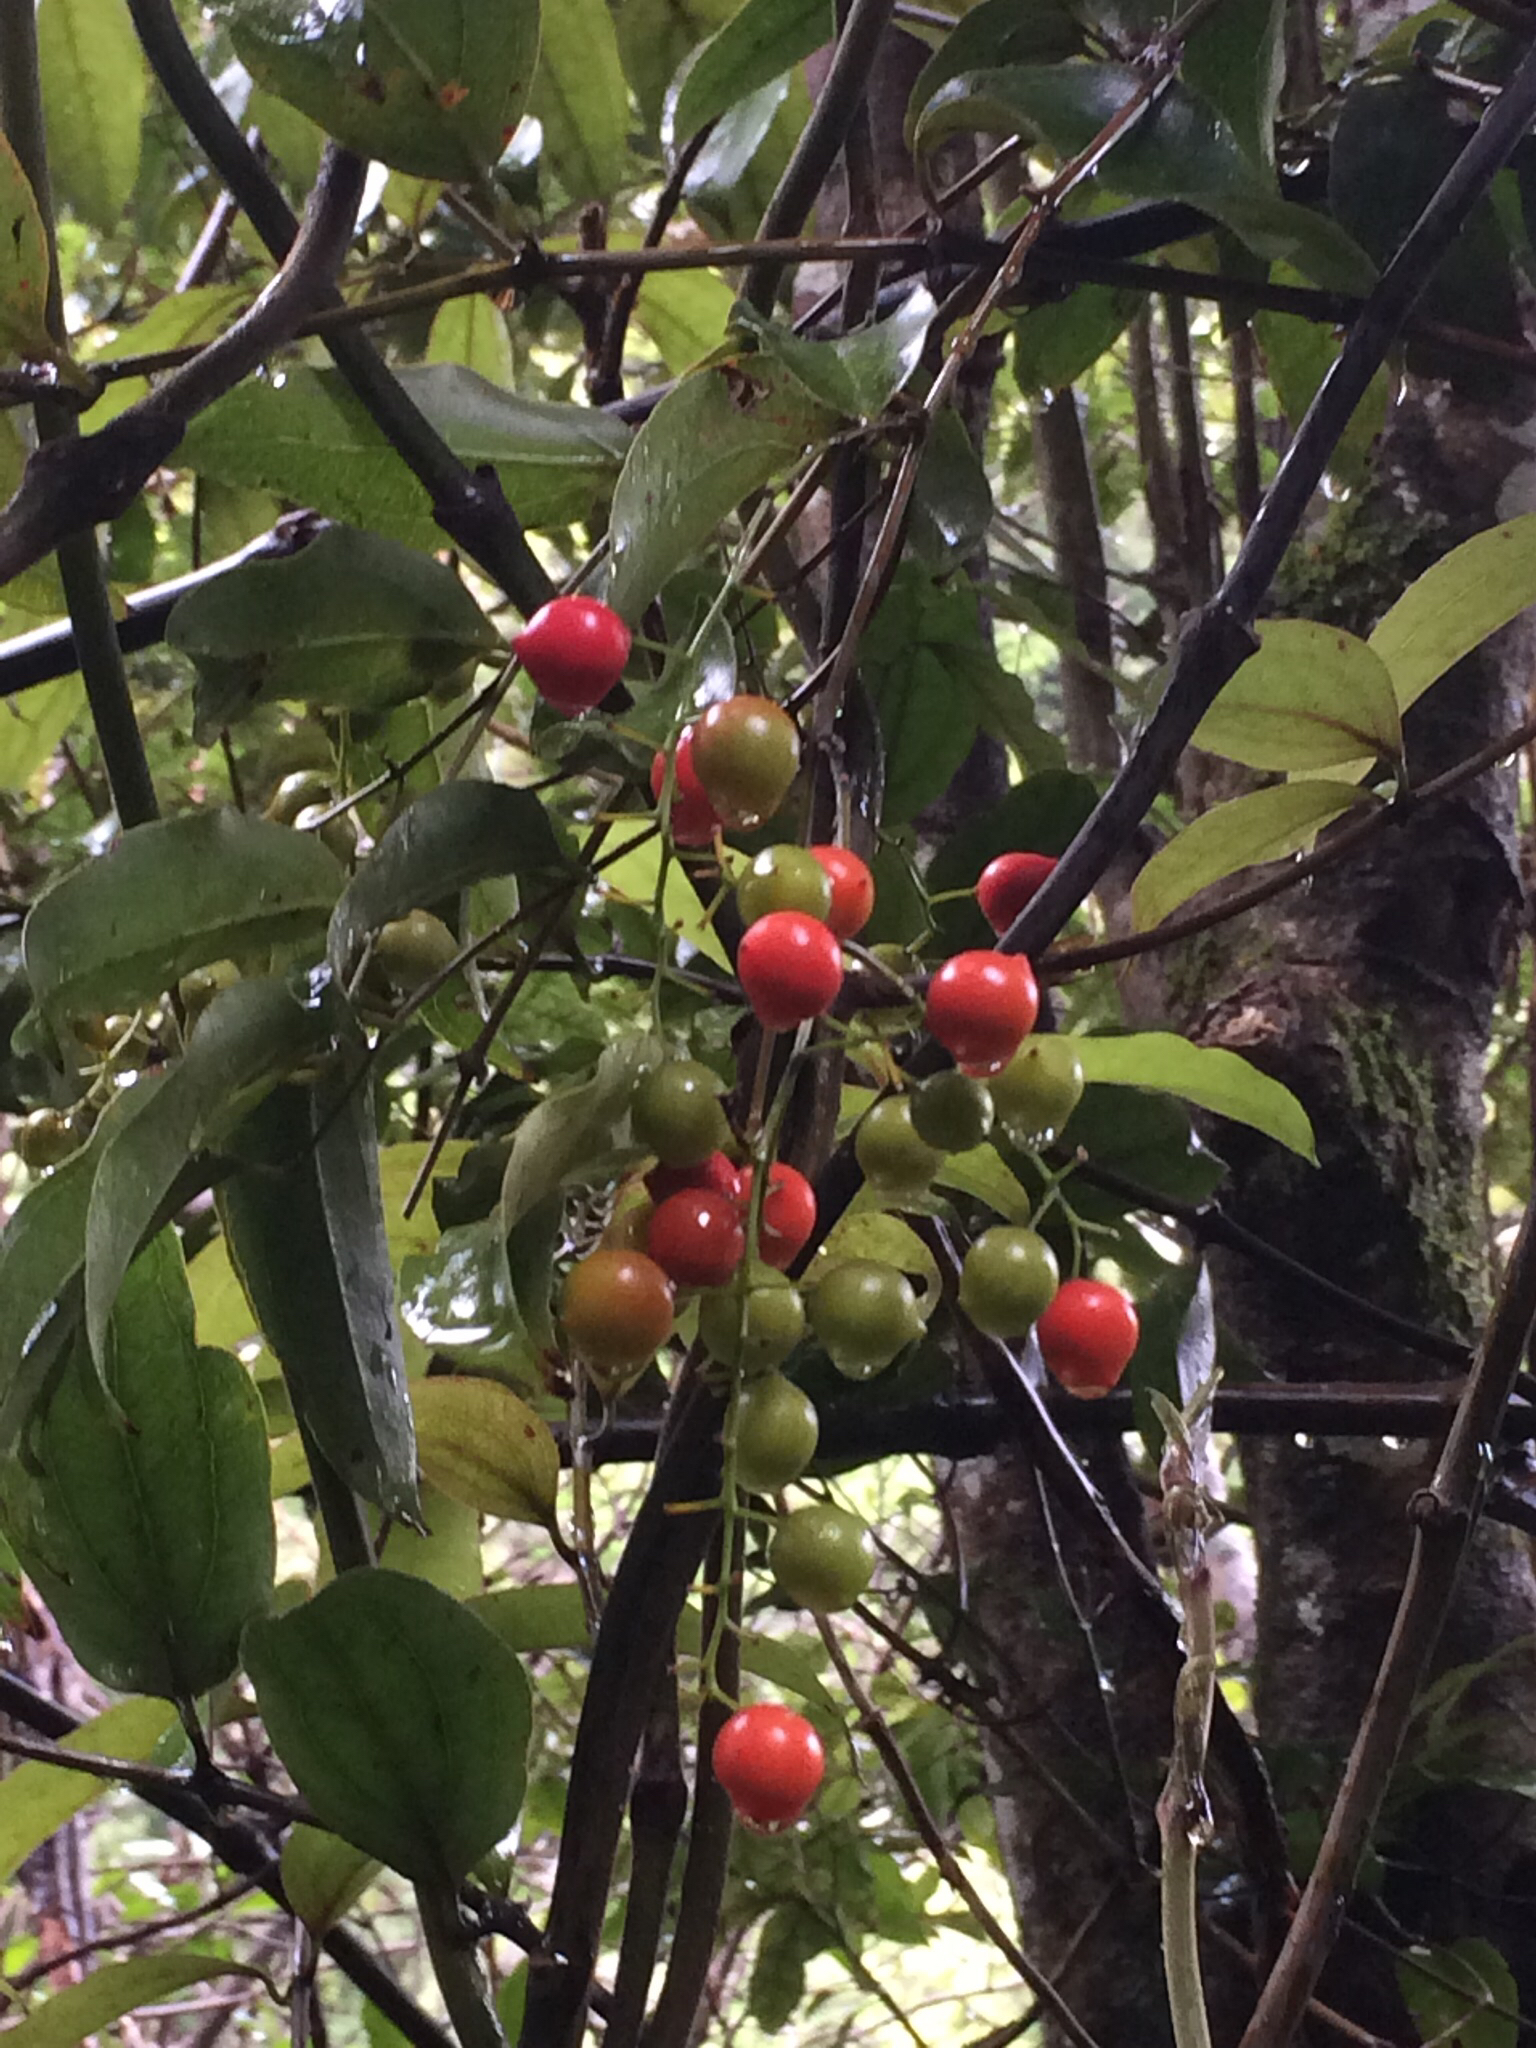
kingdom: Plantae
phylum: Tracheophyta
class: Liliopsida
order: Liliales
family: Ripogonaceae
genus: Ripogonum
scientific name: Ripogonum scandens
